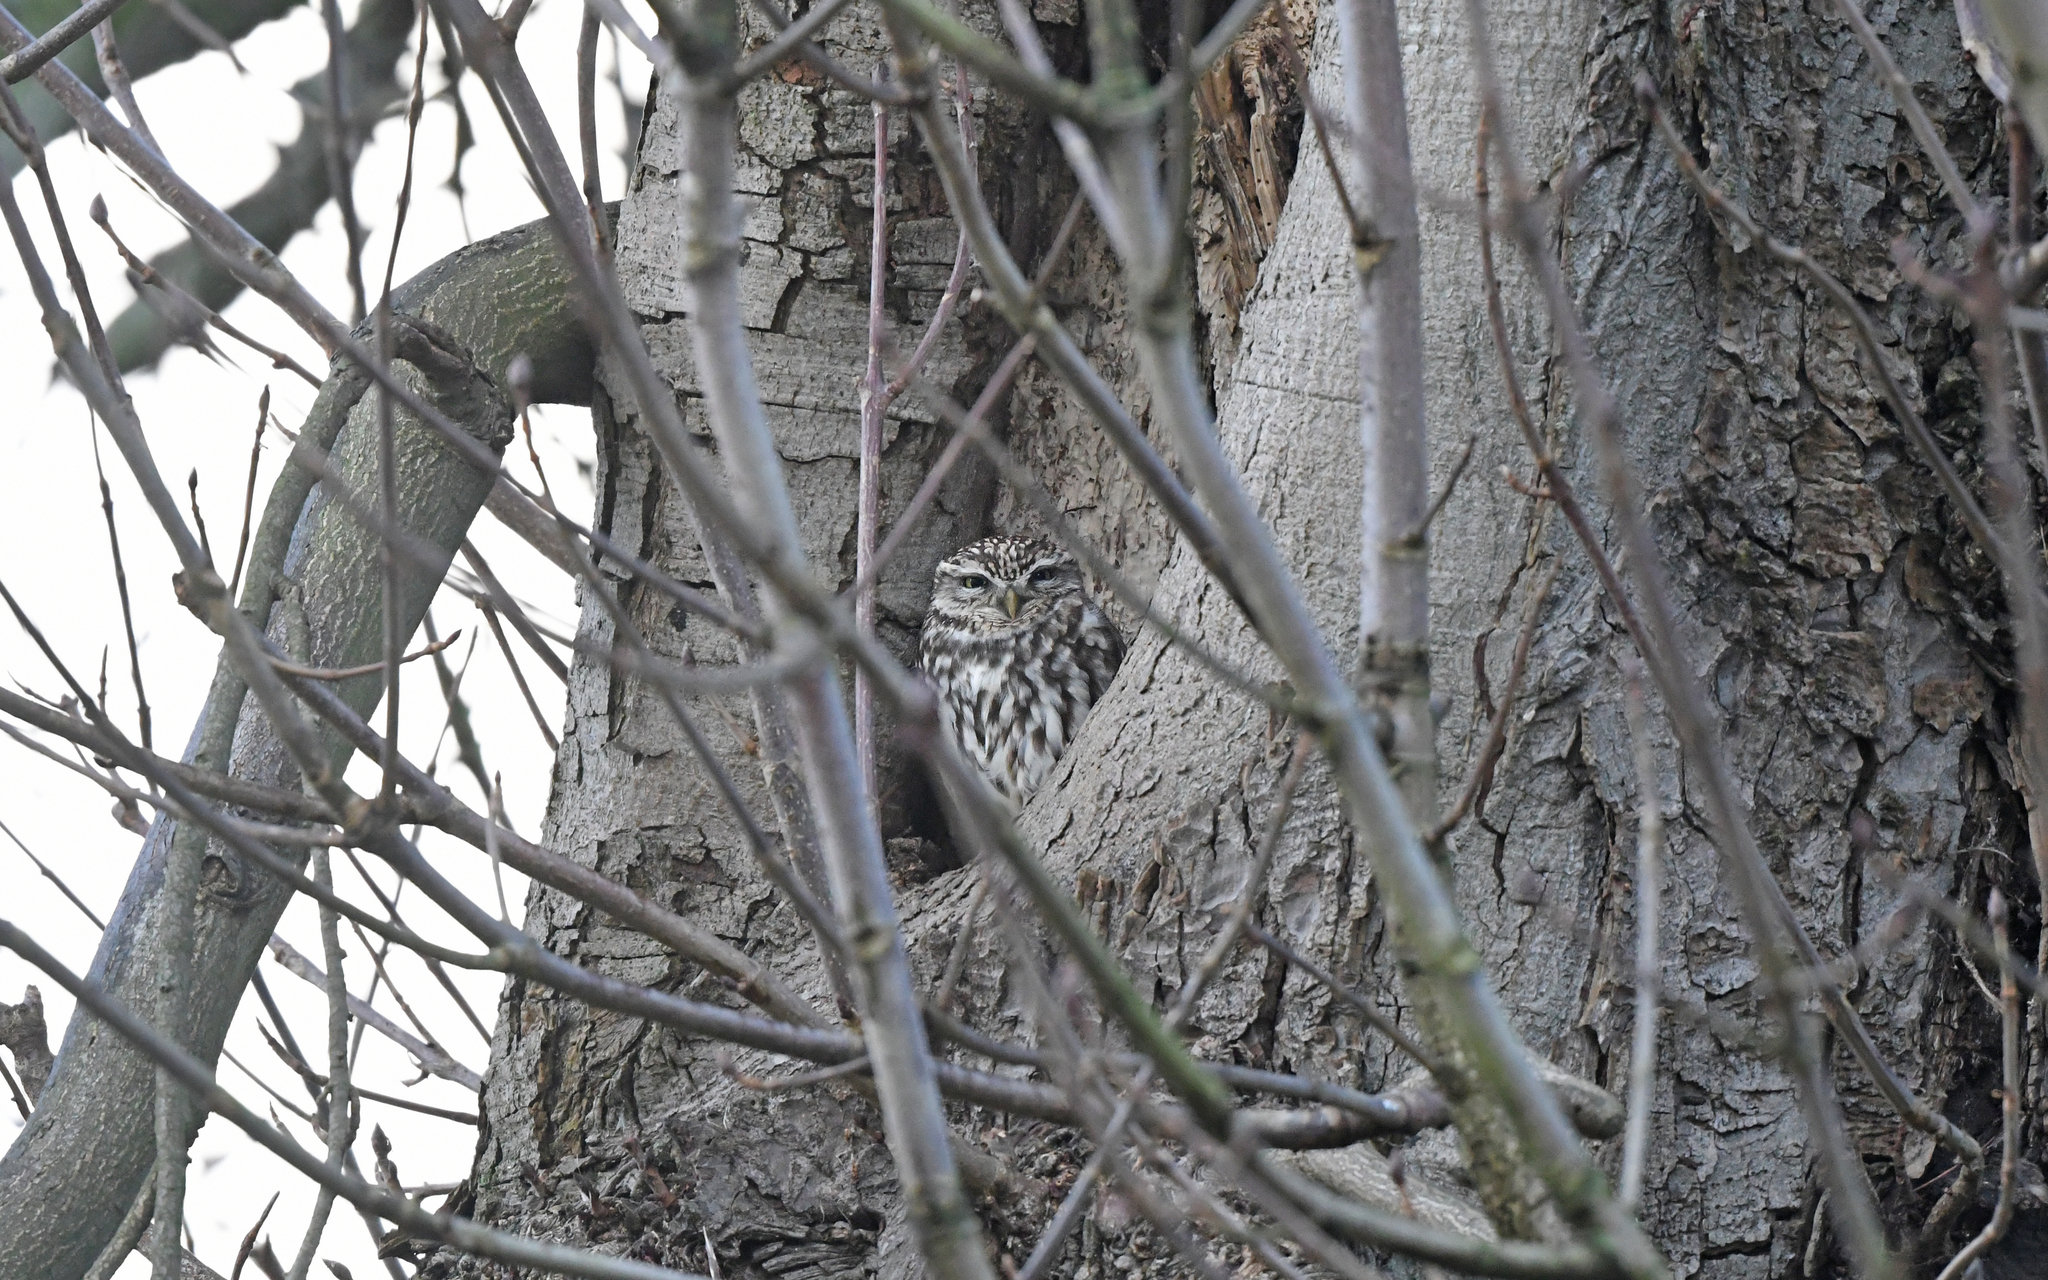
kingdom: Animalia
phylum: Chordata
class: Aves
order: Strigiformes
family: Strigidae
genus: Athene
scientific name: Athene noctua
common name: Little owl
